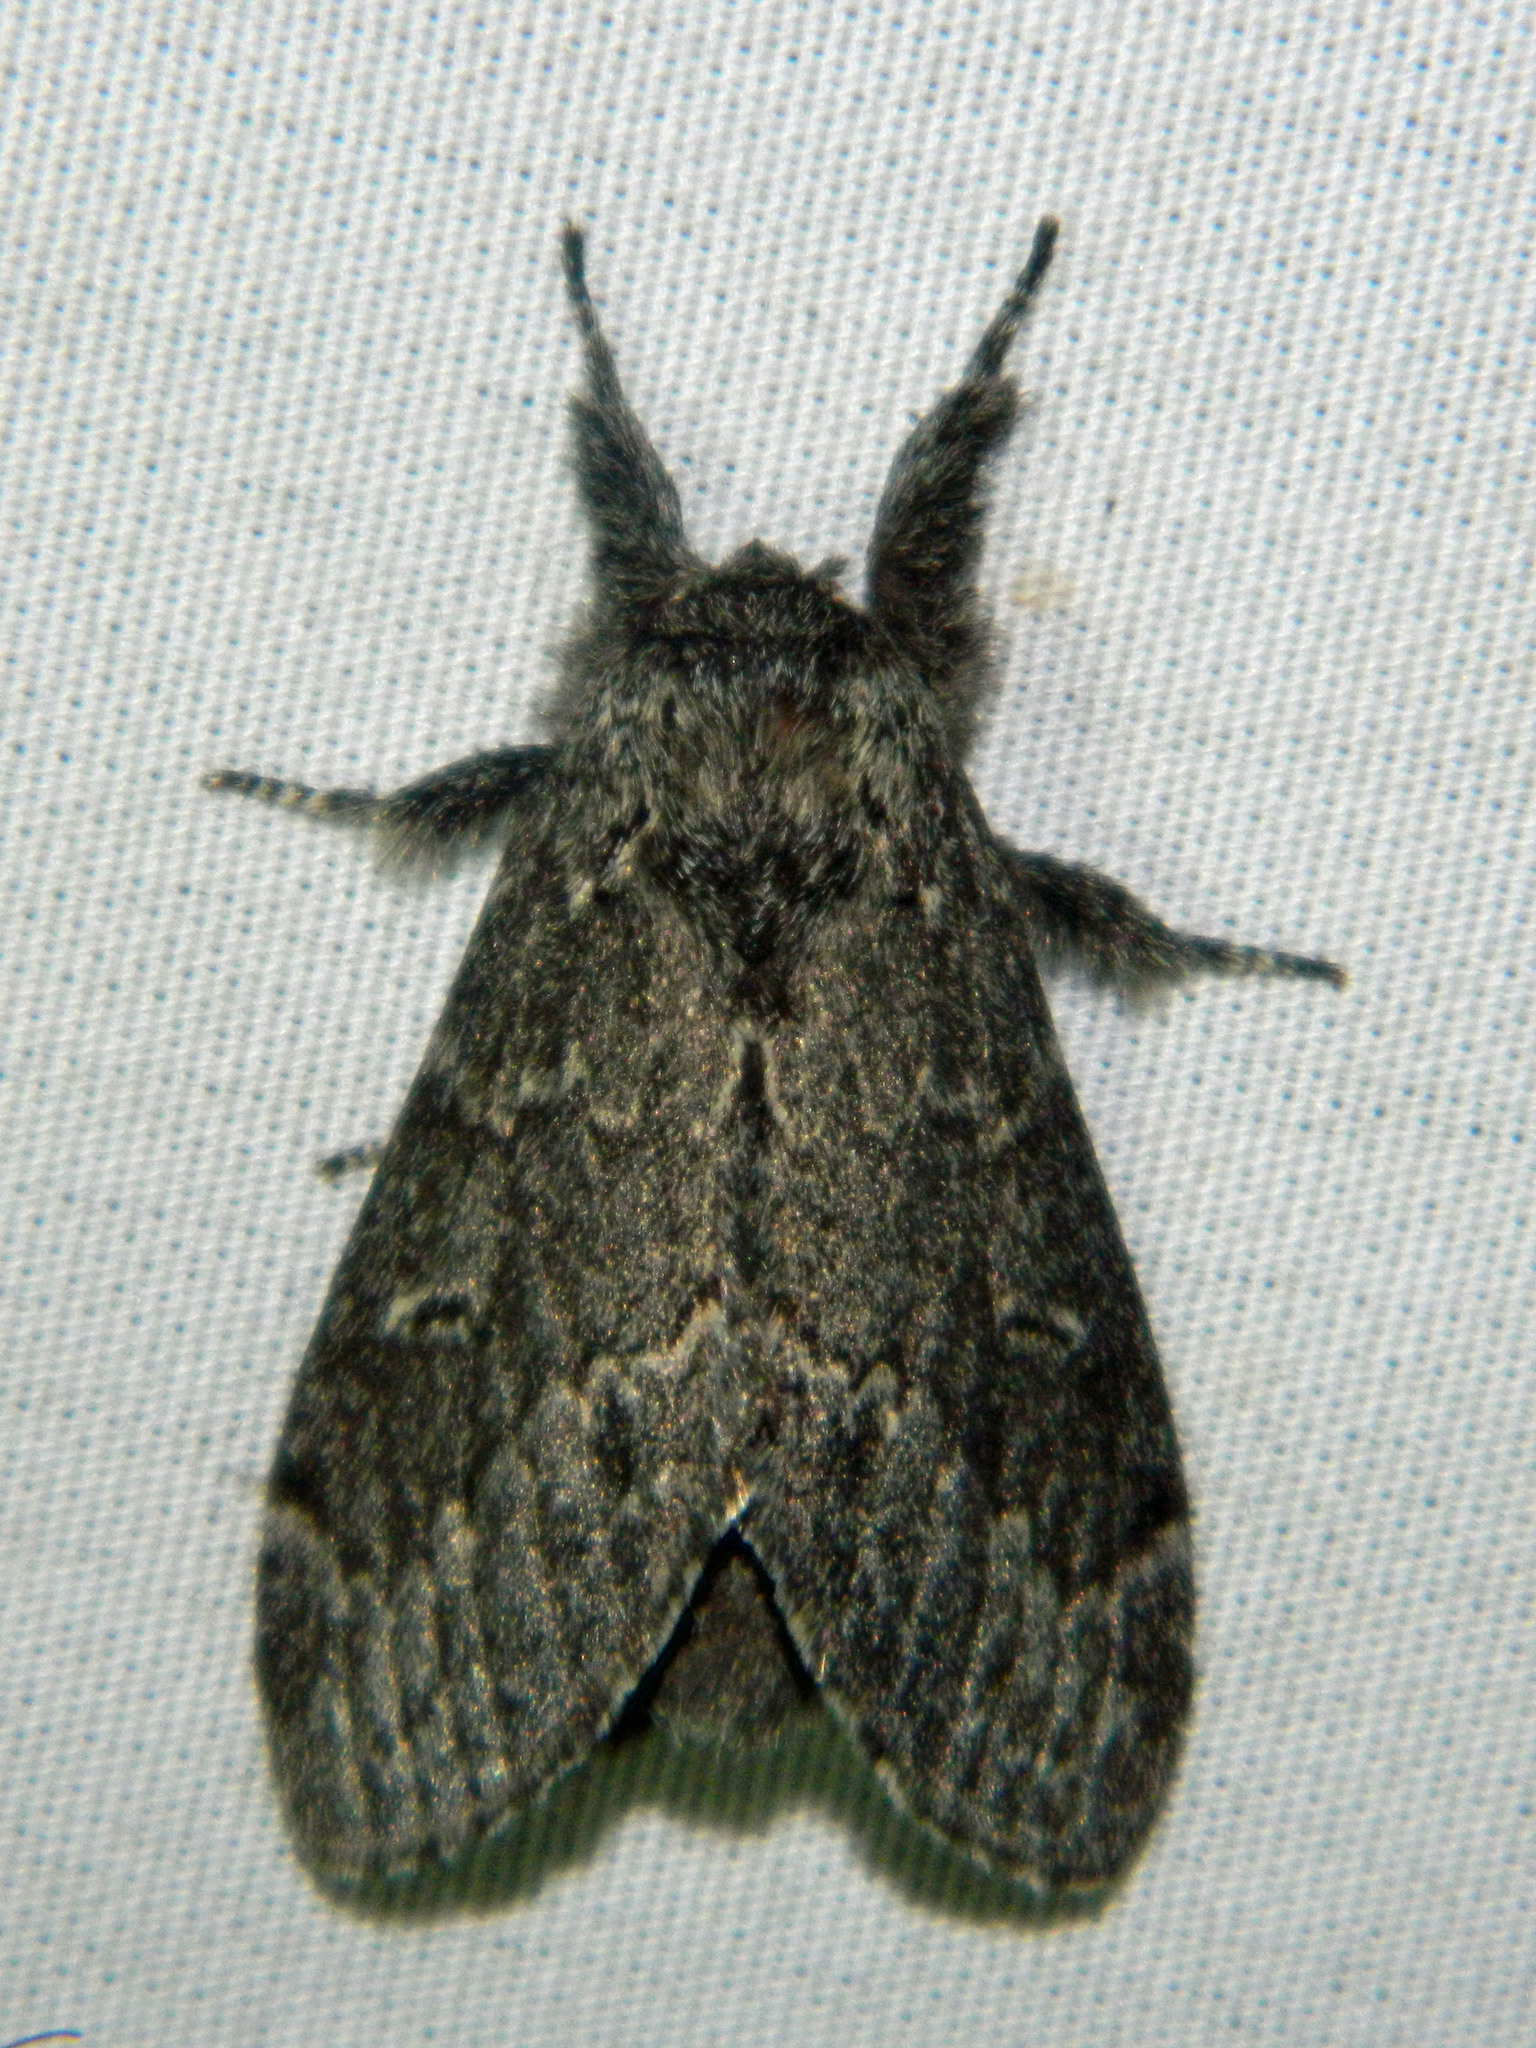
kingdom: Animalia
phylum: Arthropoda
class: Insecta
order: Lepidoptera
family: Notodontidae
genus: Notodonta
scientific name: Notodonta torva
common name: Large dark prominent
